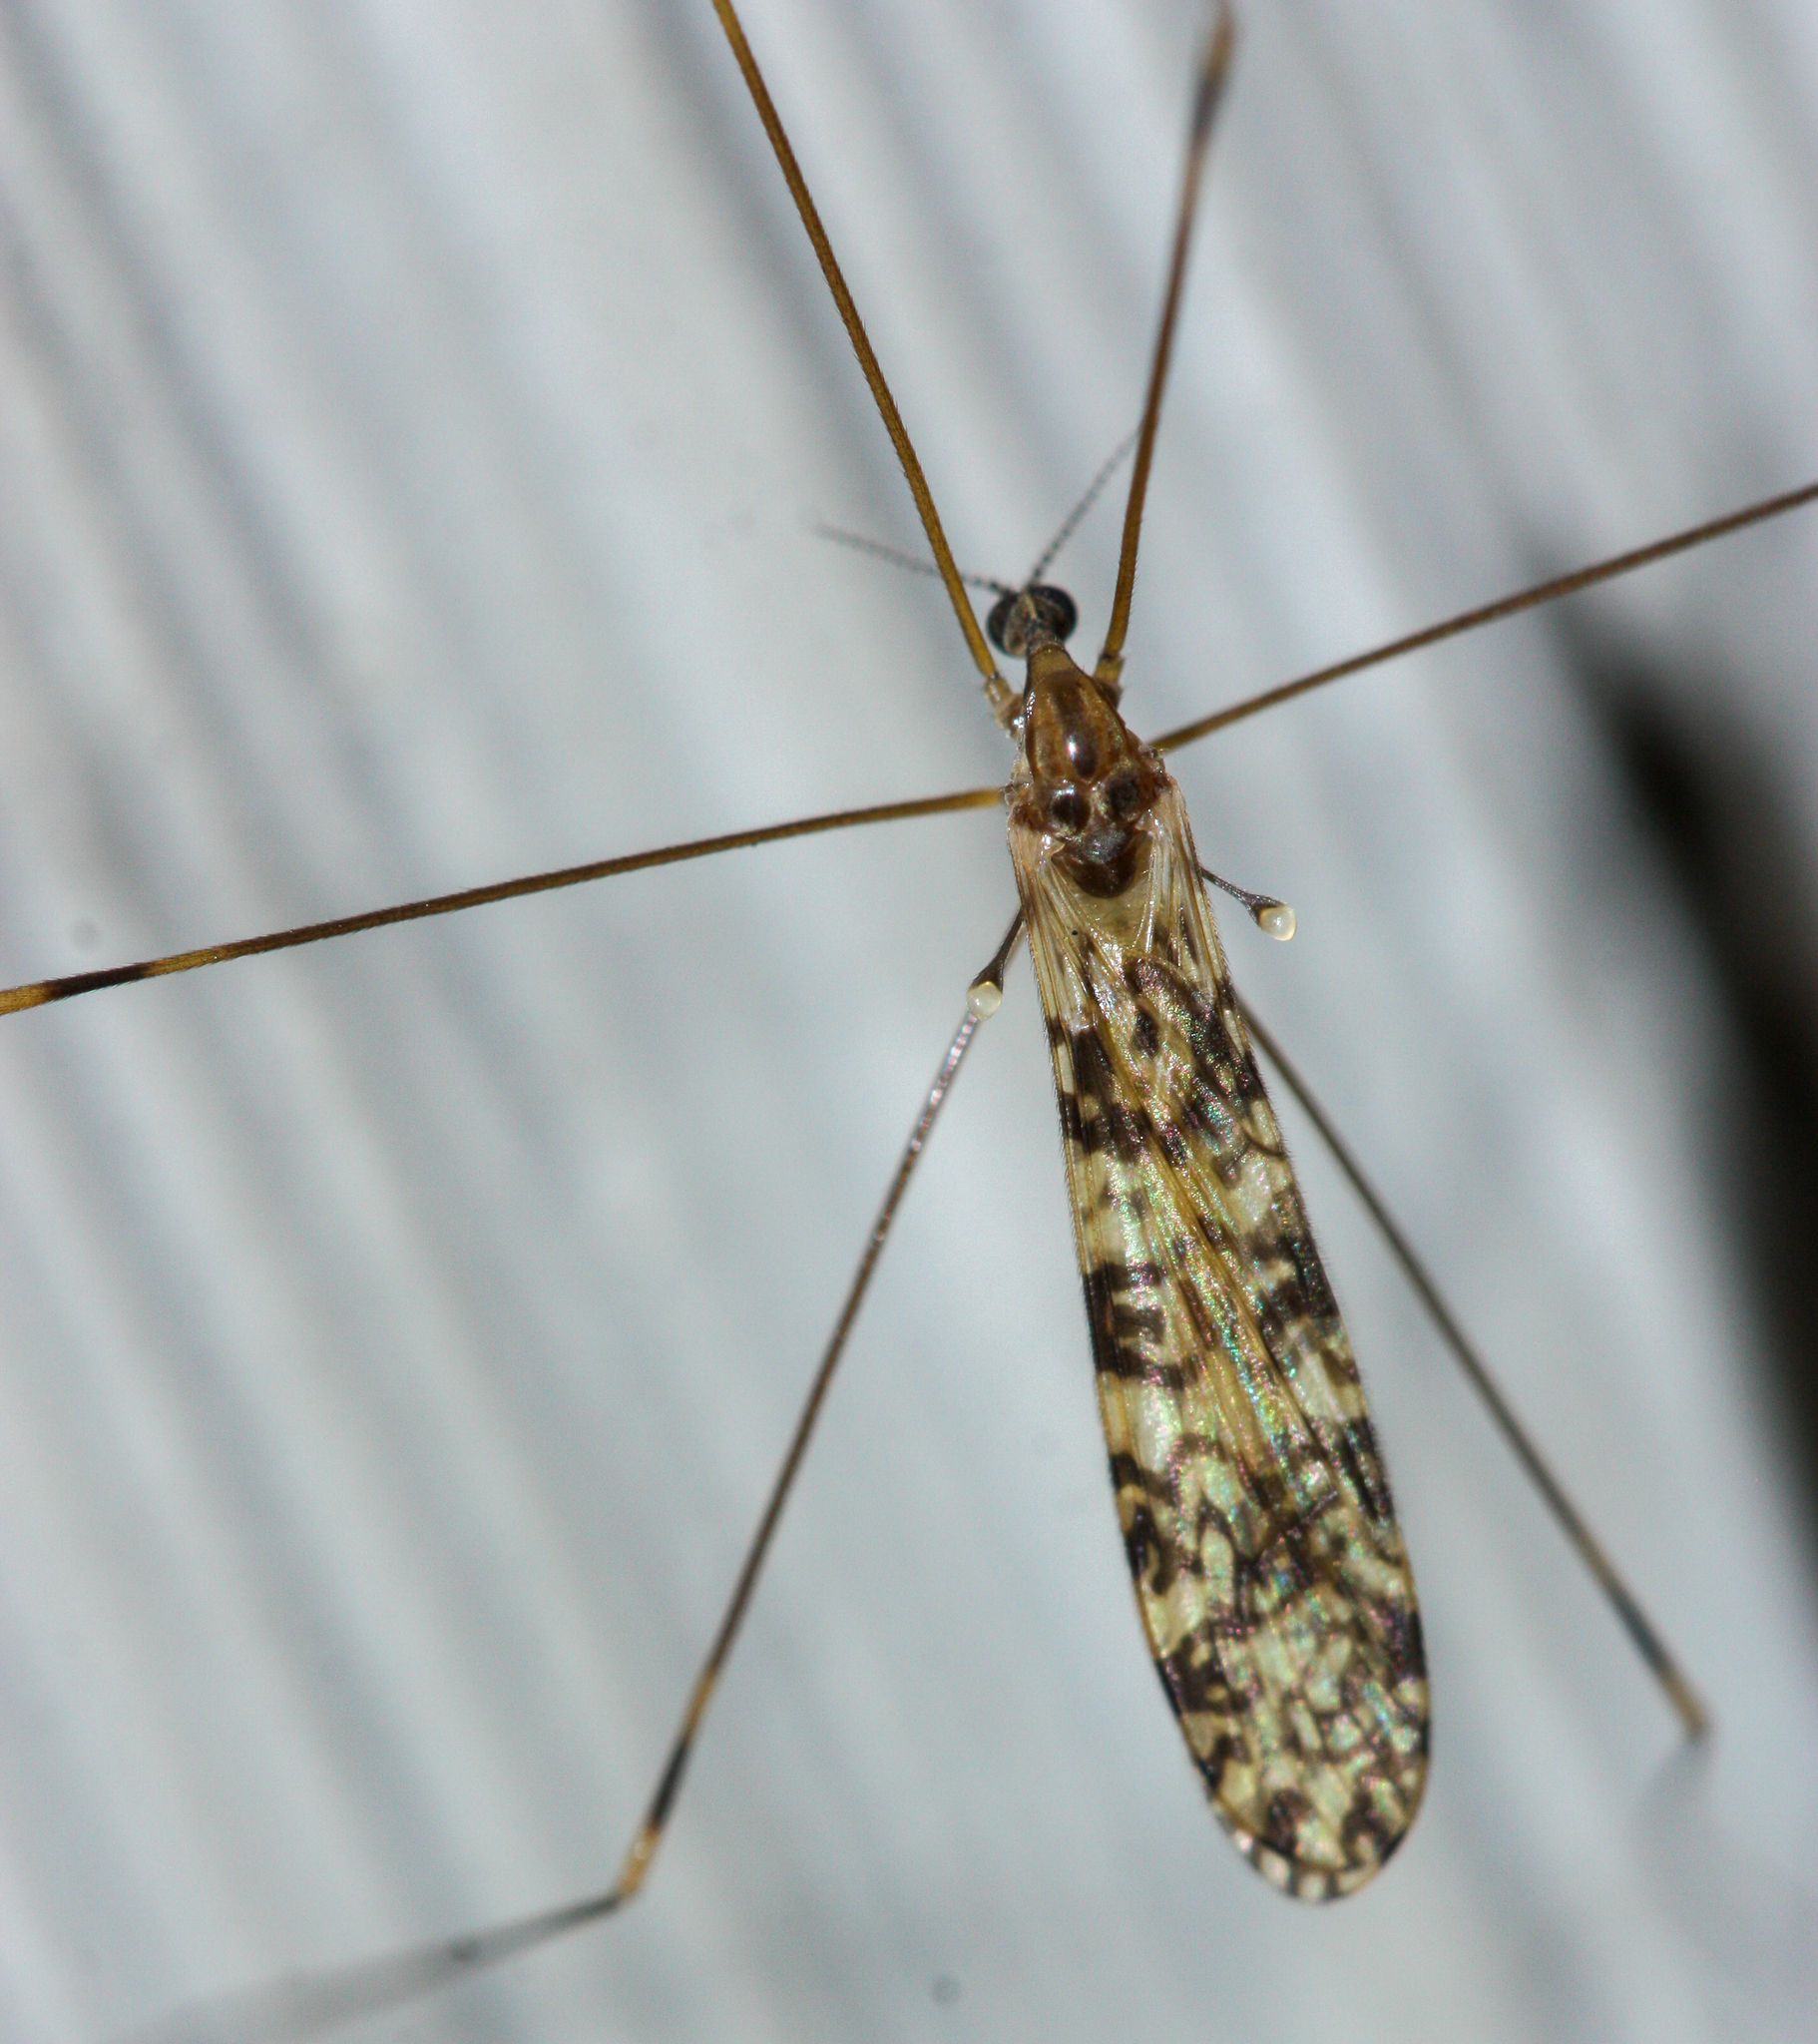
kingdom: Animalia
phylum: Arthropoda
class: Insecta
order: Diptera
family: Limoniidae
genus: Limonia
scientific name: Limonia annulata
